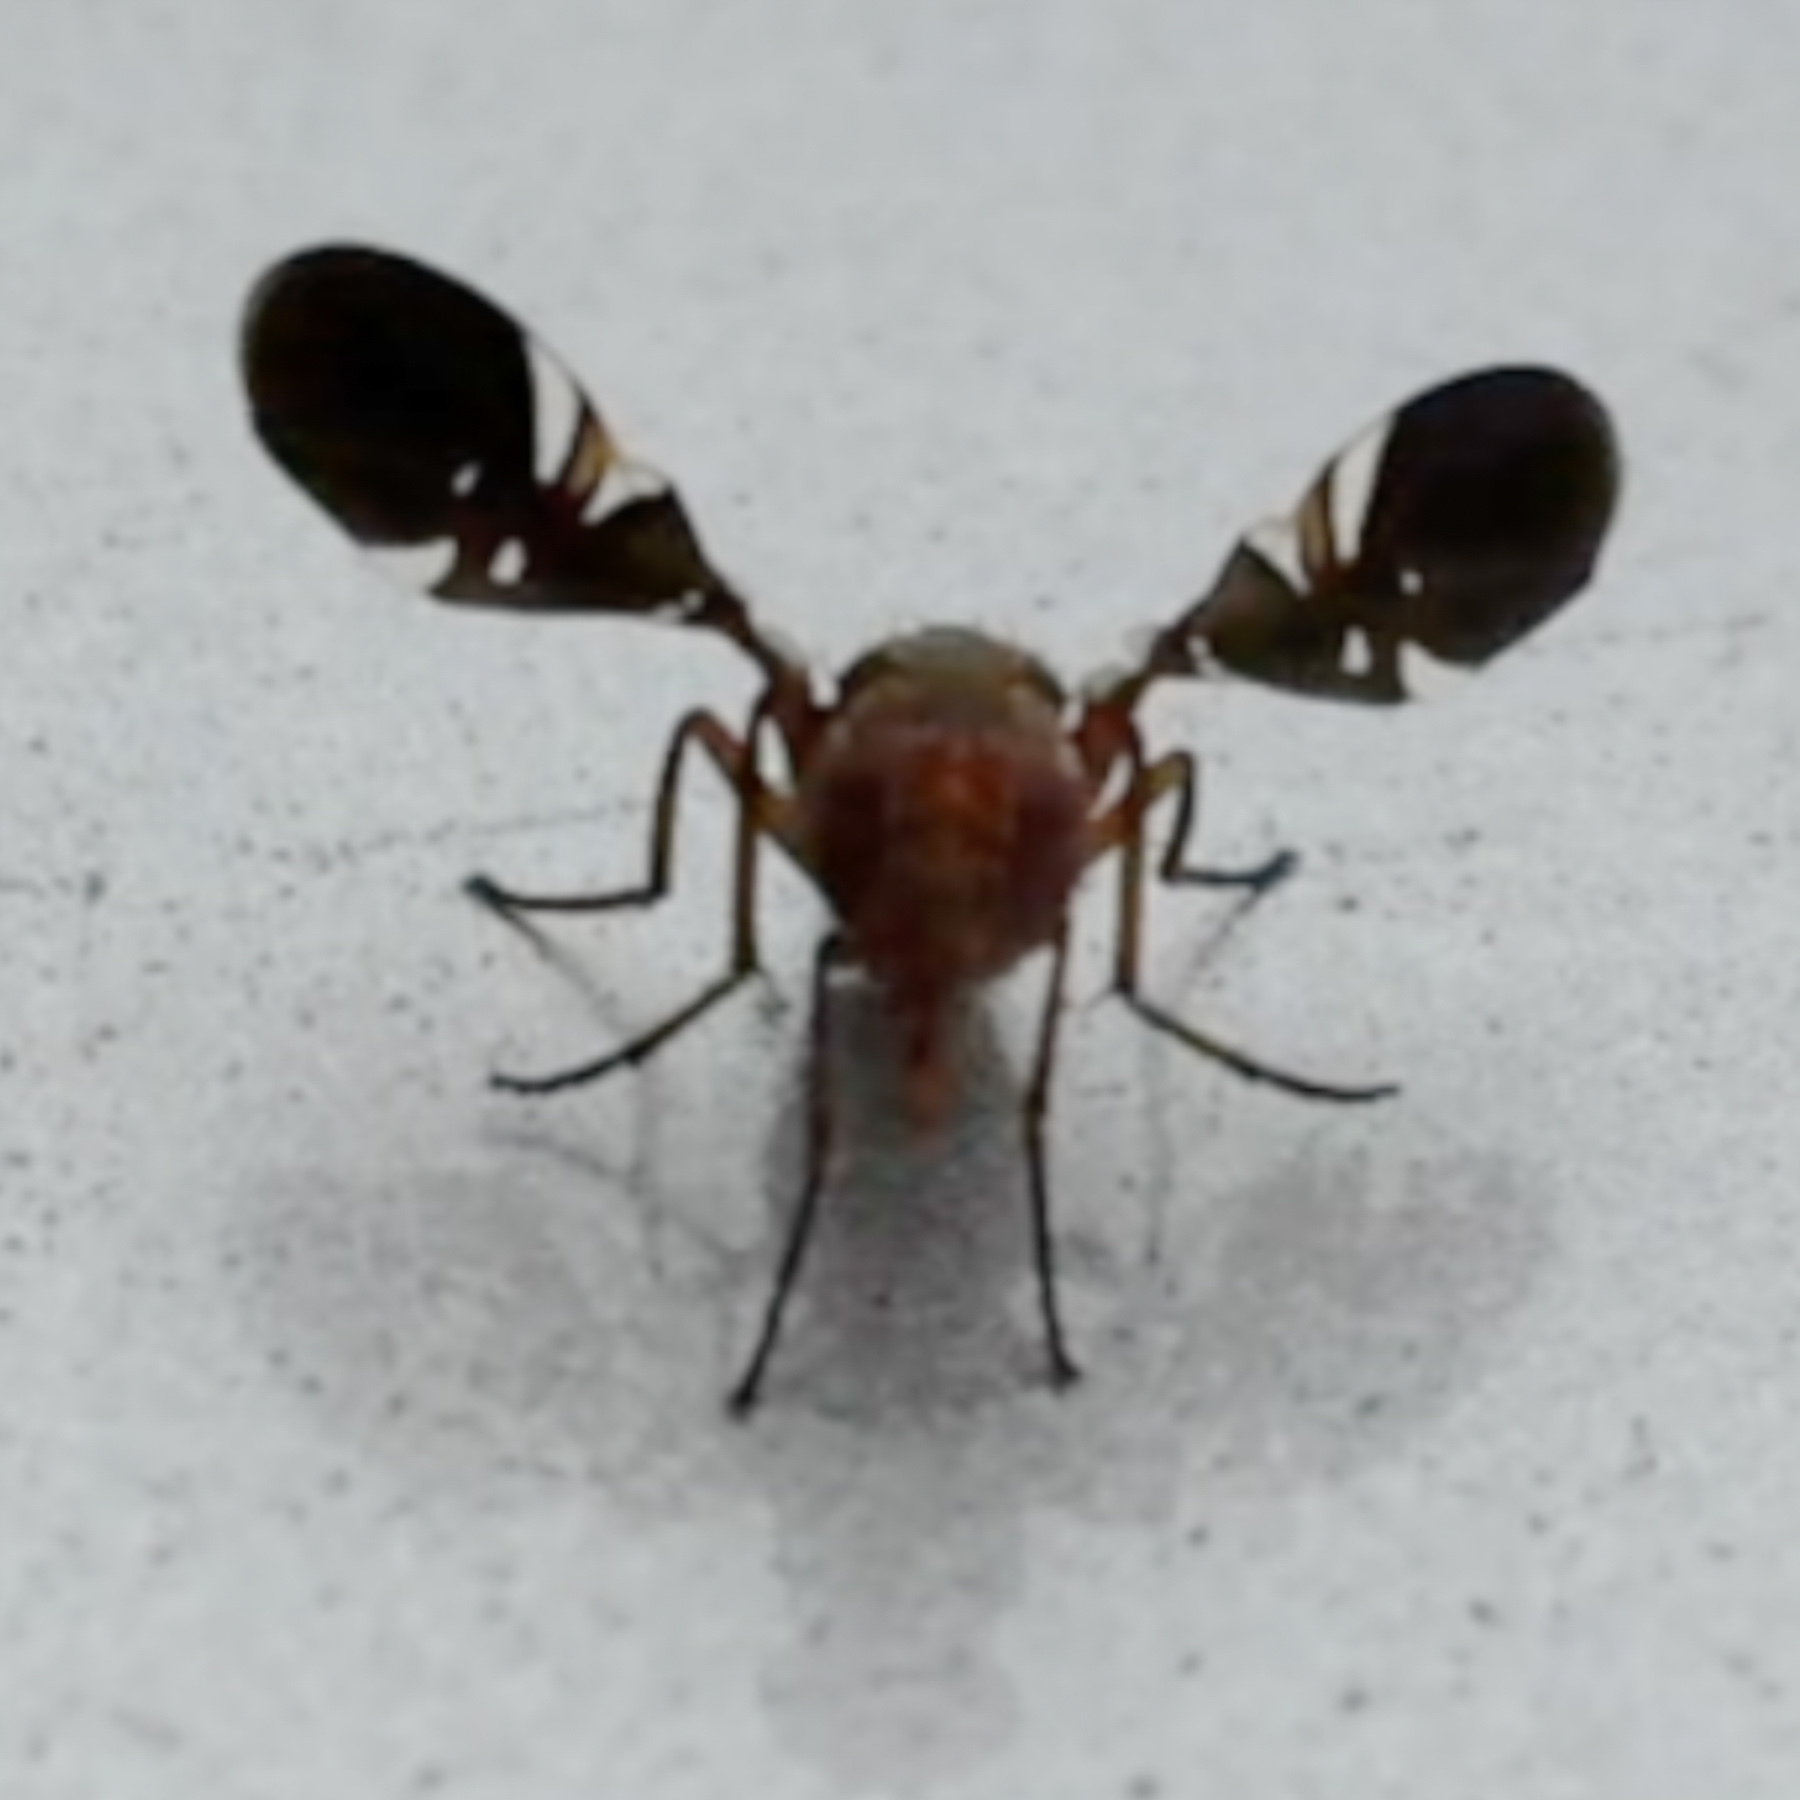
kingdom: Animalia
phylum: Arthropoda
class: Insecta
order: Diptera
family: Ulidiidae
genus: Delphinia
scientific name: Delphinia picta
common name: Common picture-winged fly
